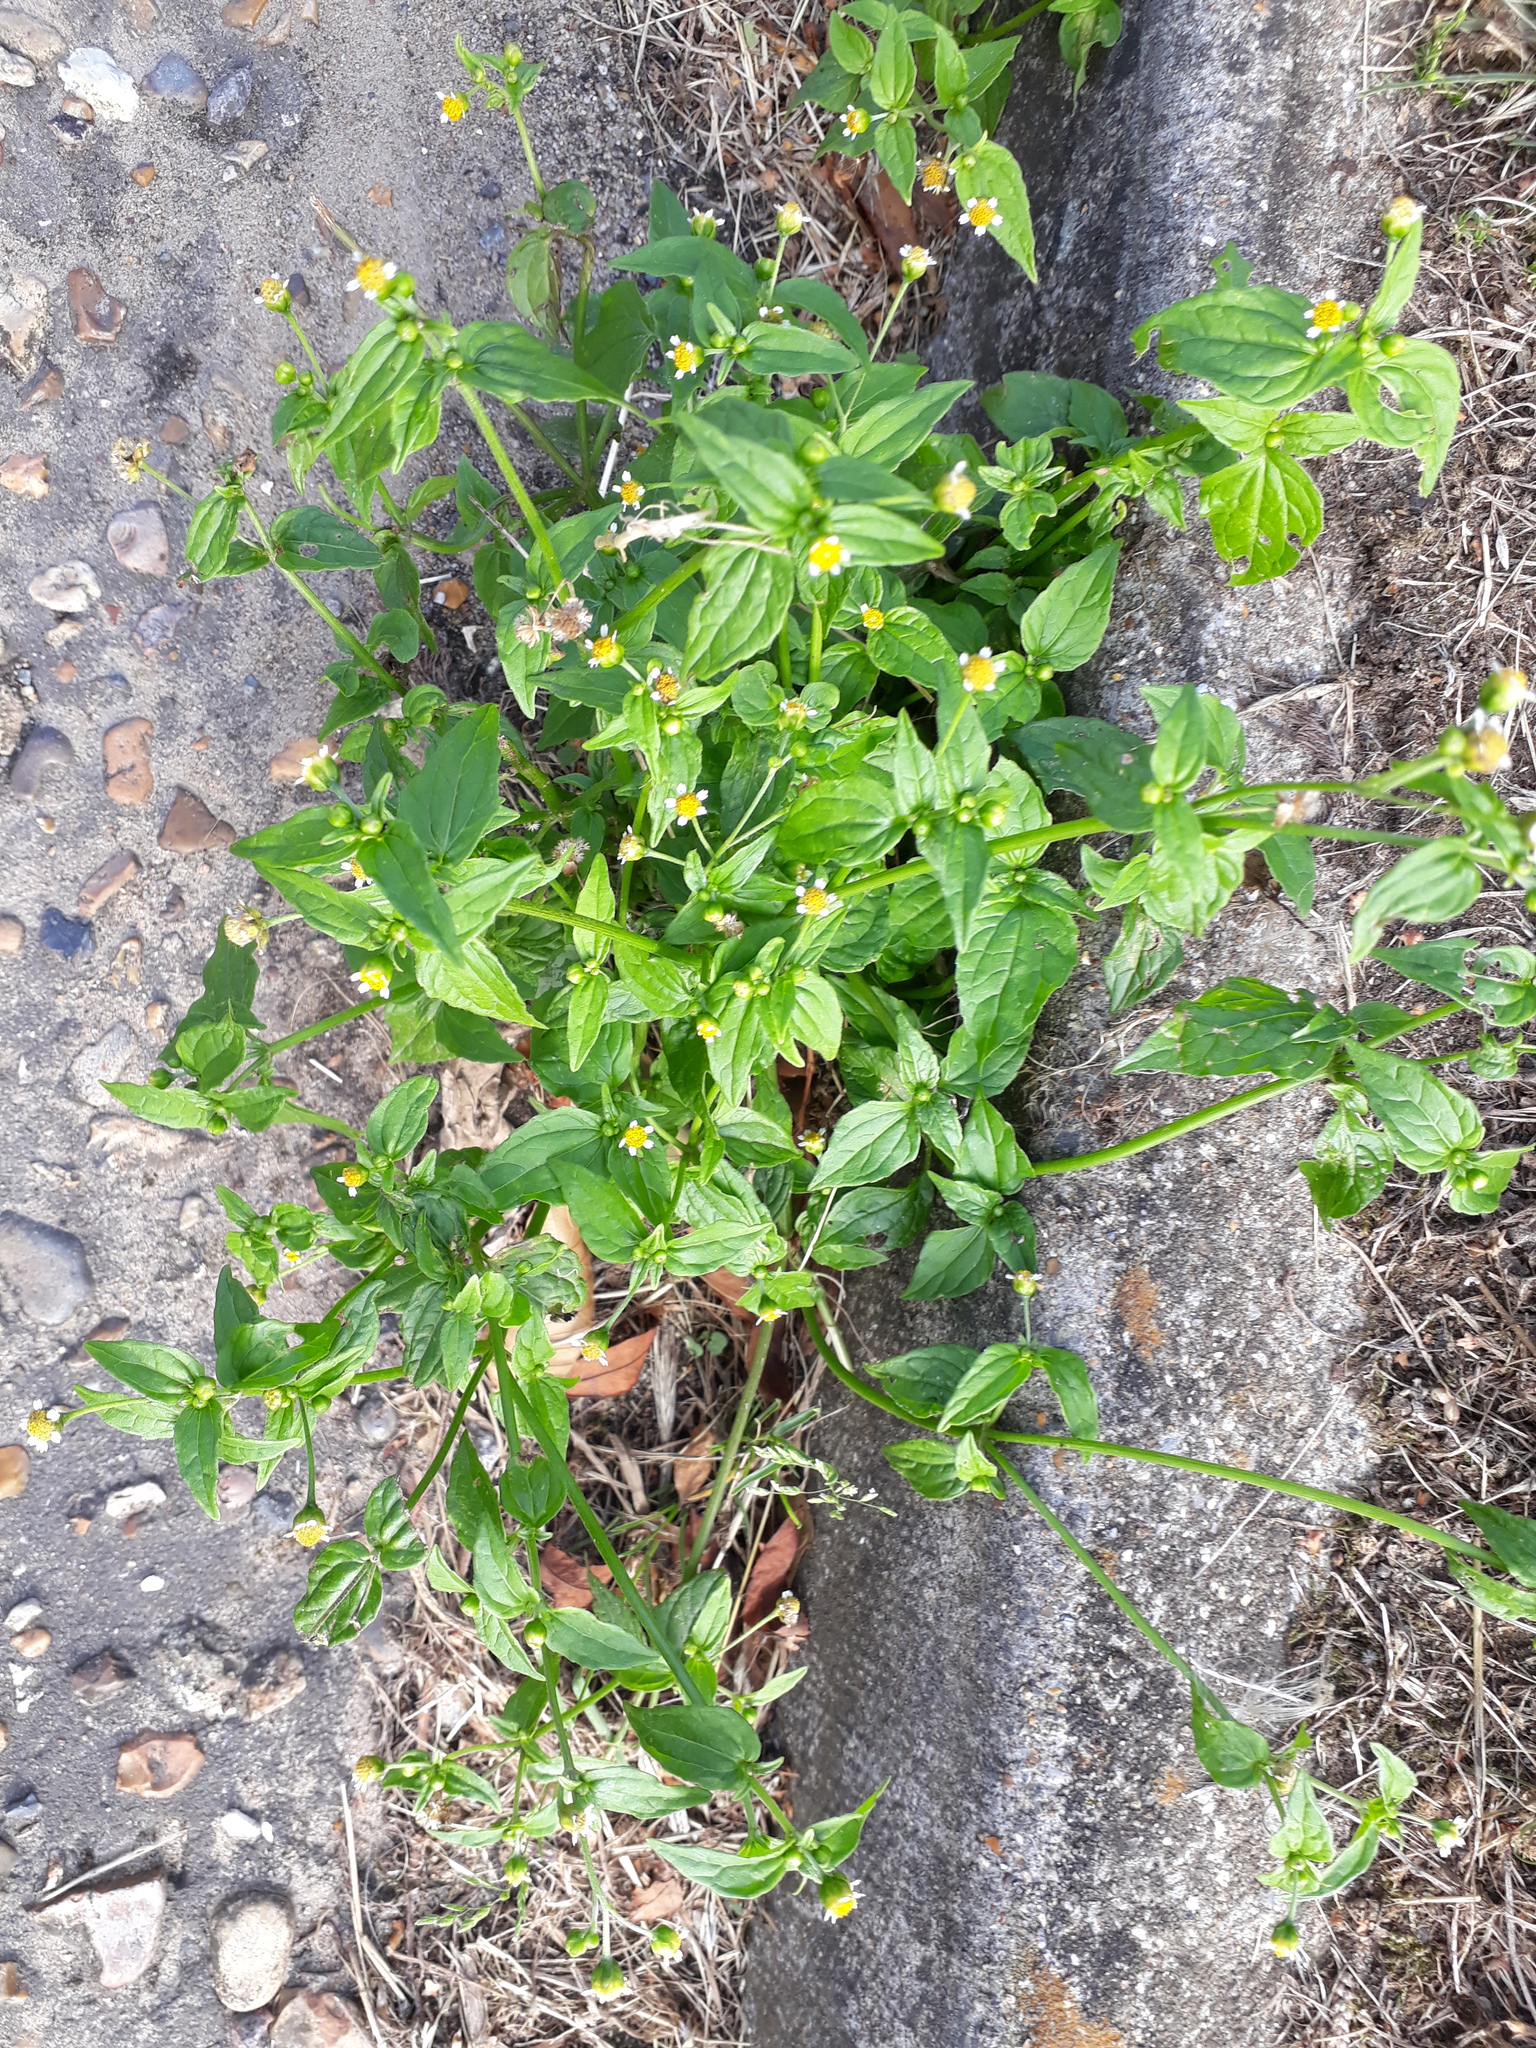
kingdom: Plantae
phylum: Tracheophyta
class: Magnoliopsida
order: Asterales
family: Asteraceae
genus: Galinsoga
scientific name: Galinsoga parviflora
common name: Gallant soldier
